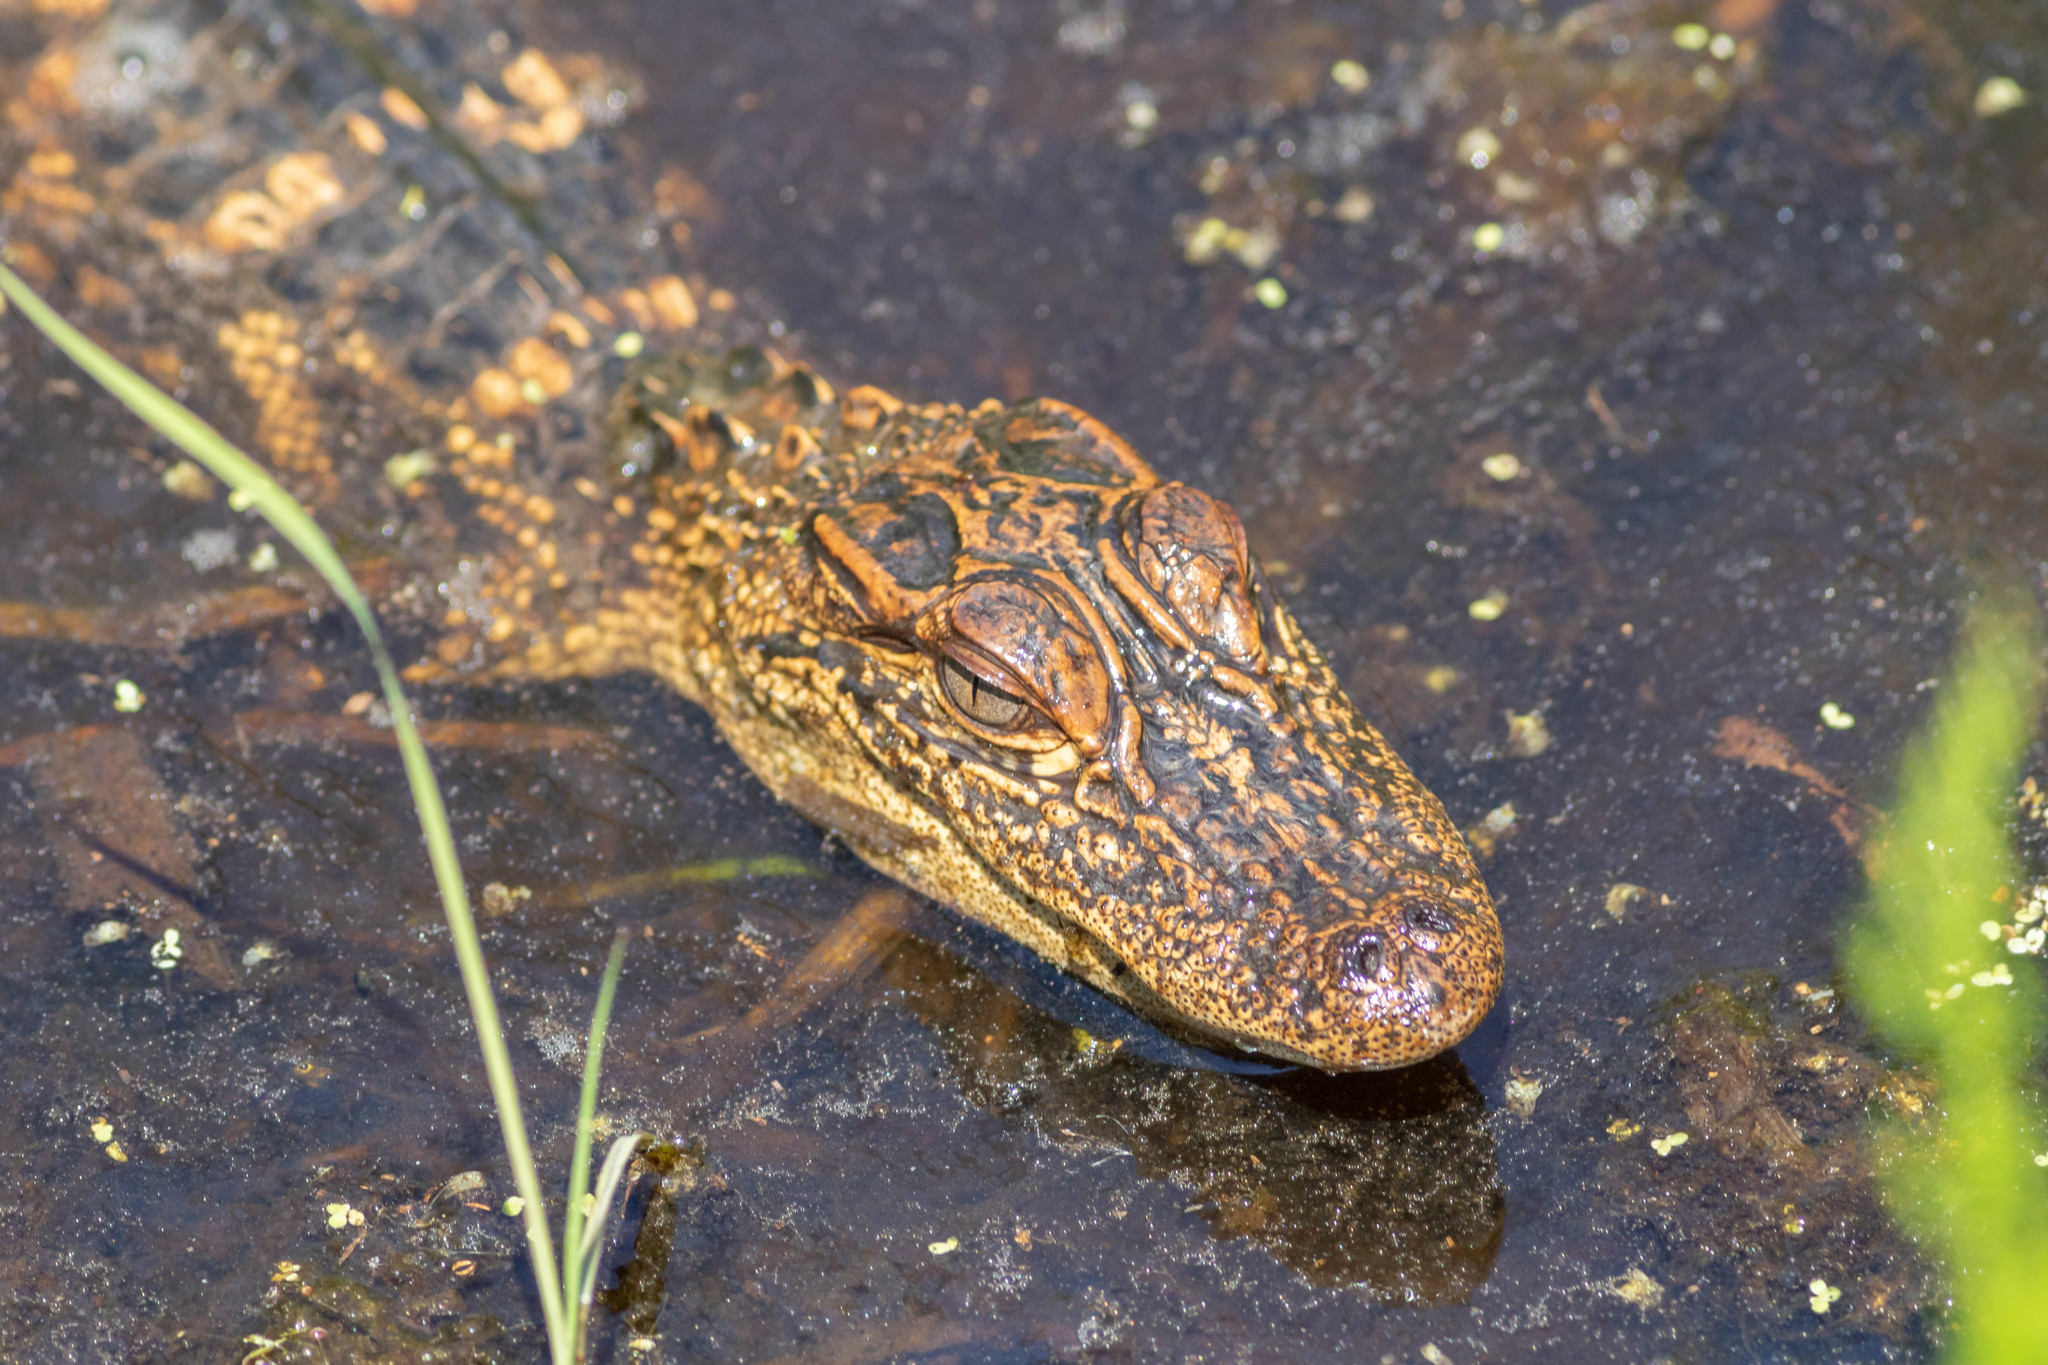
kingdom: Animalia
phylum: Chordata
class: Crocodylia
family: Alligatoridae
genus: Alligator
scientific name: Alligator mississippiensis
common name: American alligator
